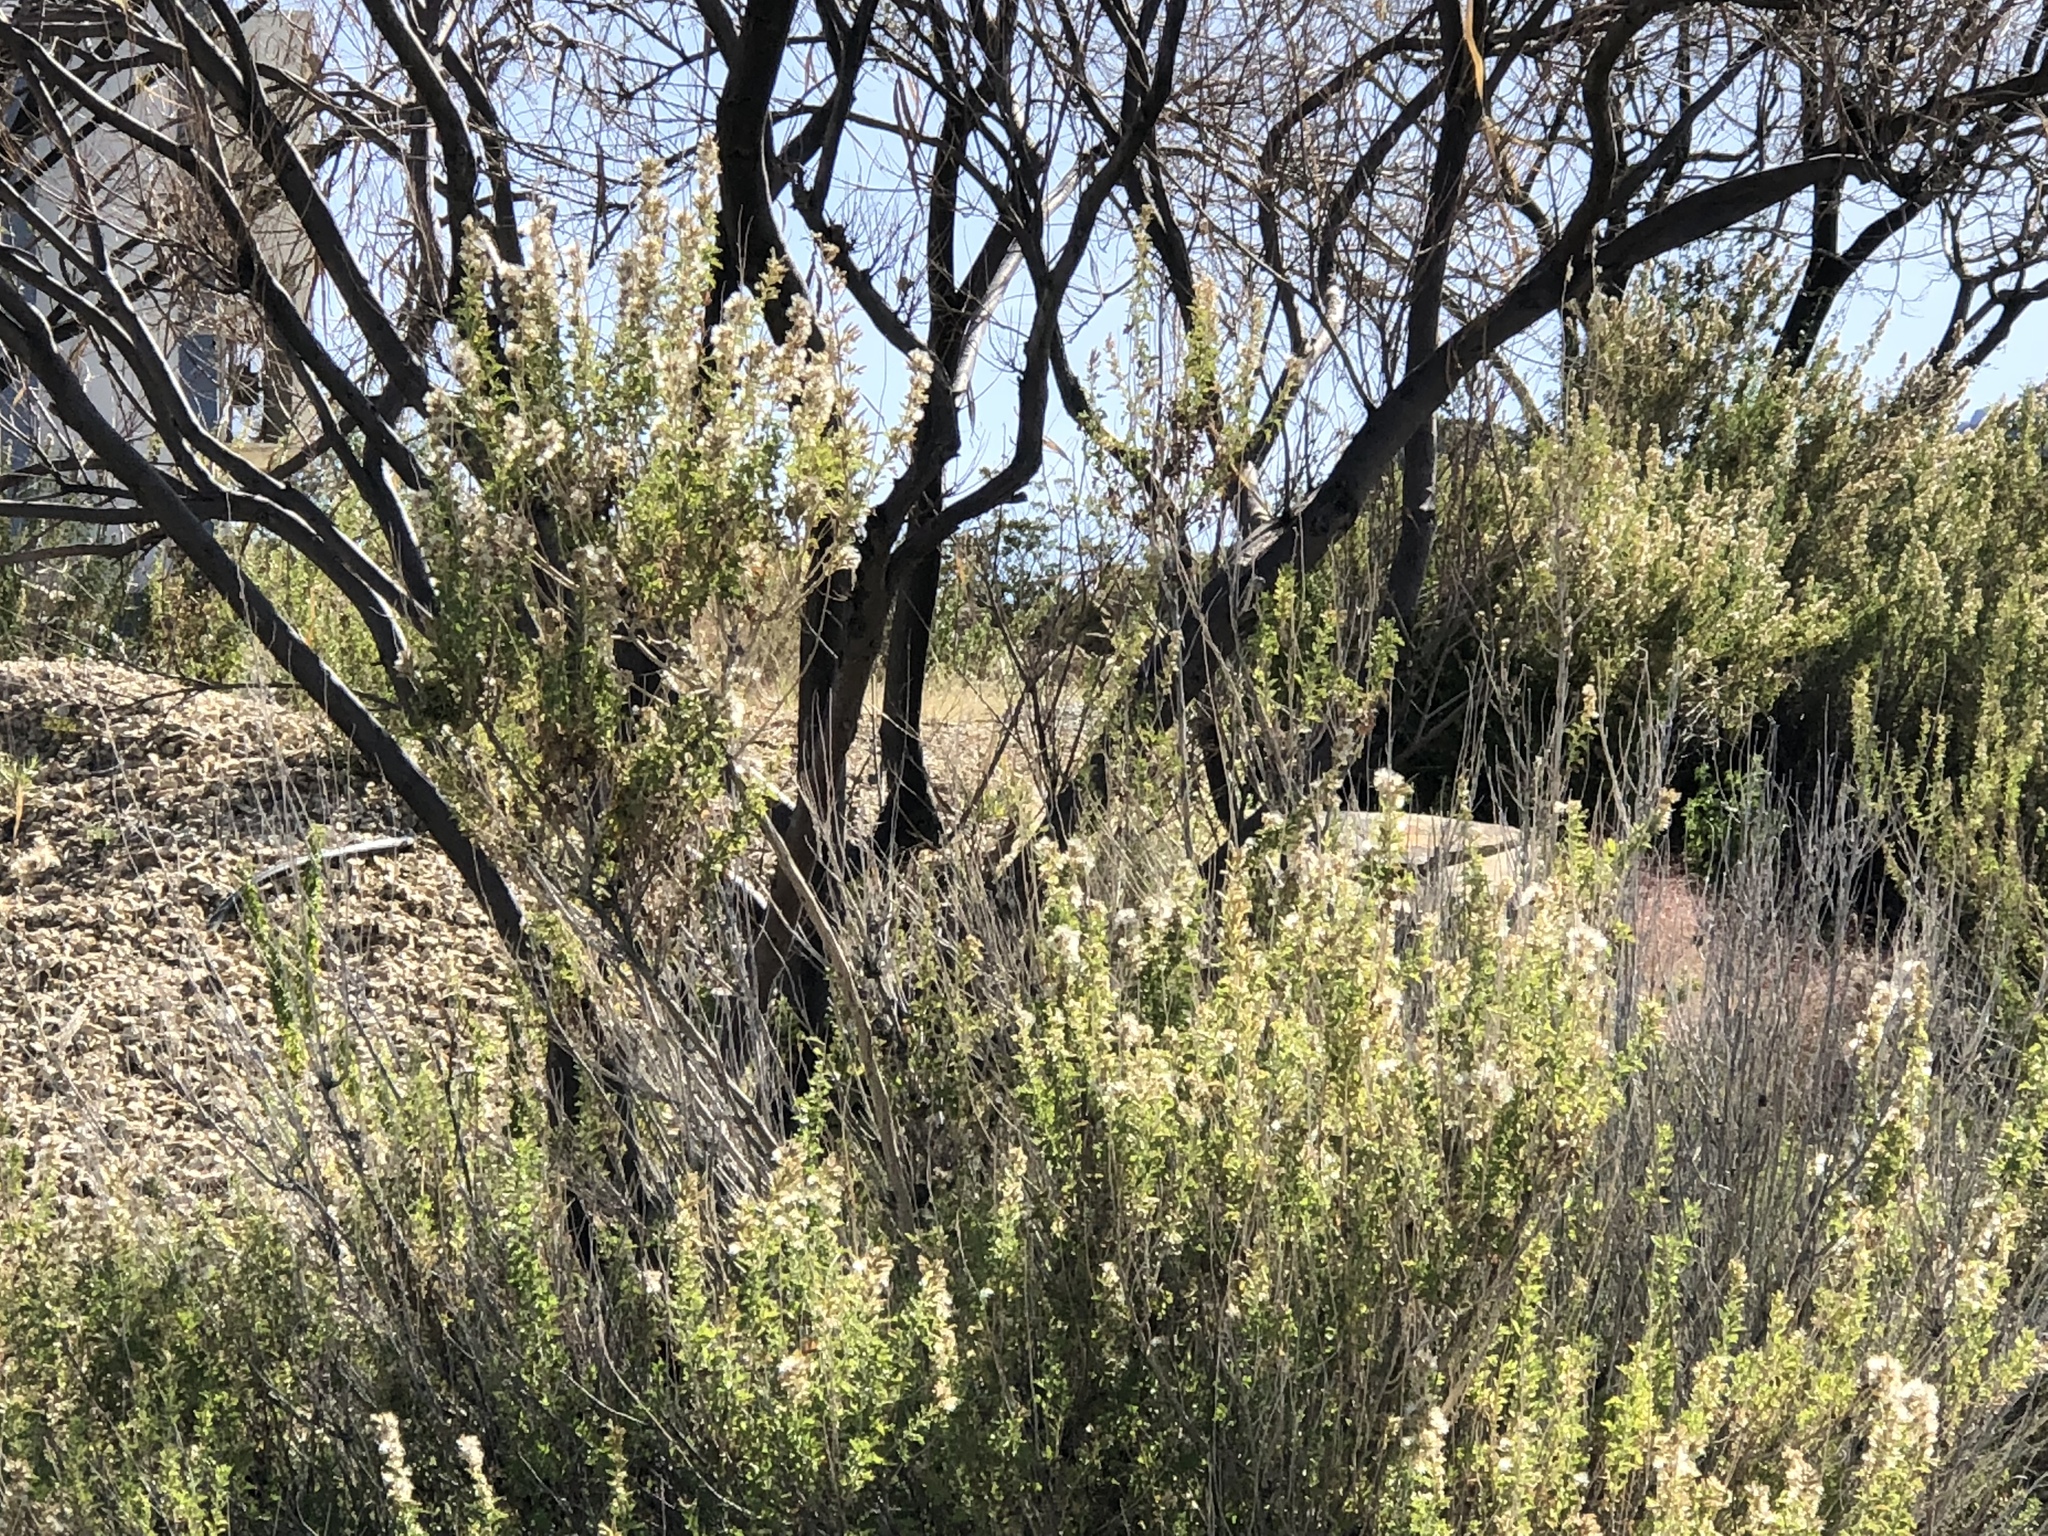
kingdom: Plantae
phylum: Tracheophyta
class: Magnoliopsida
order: Asterales
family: Asteraceae
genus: Brickellia
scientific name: Brickellia laciniata
